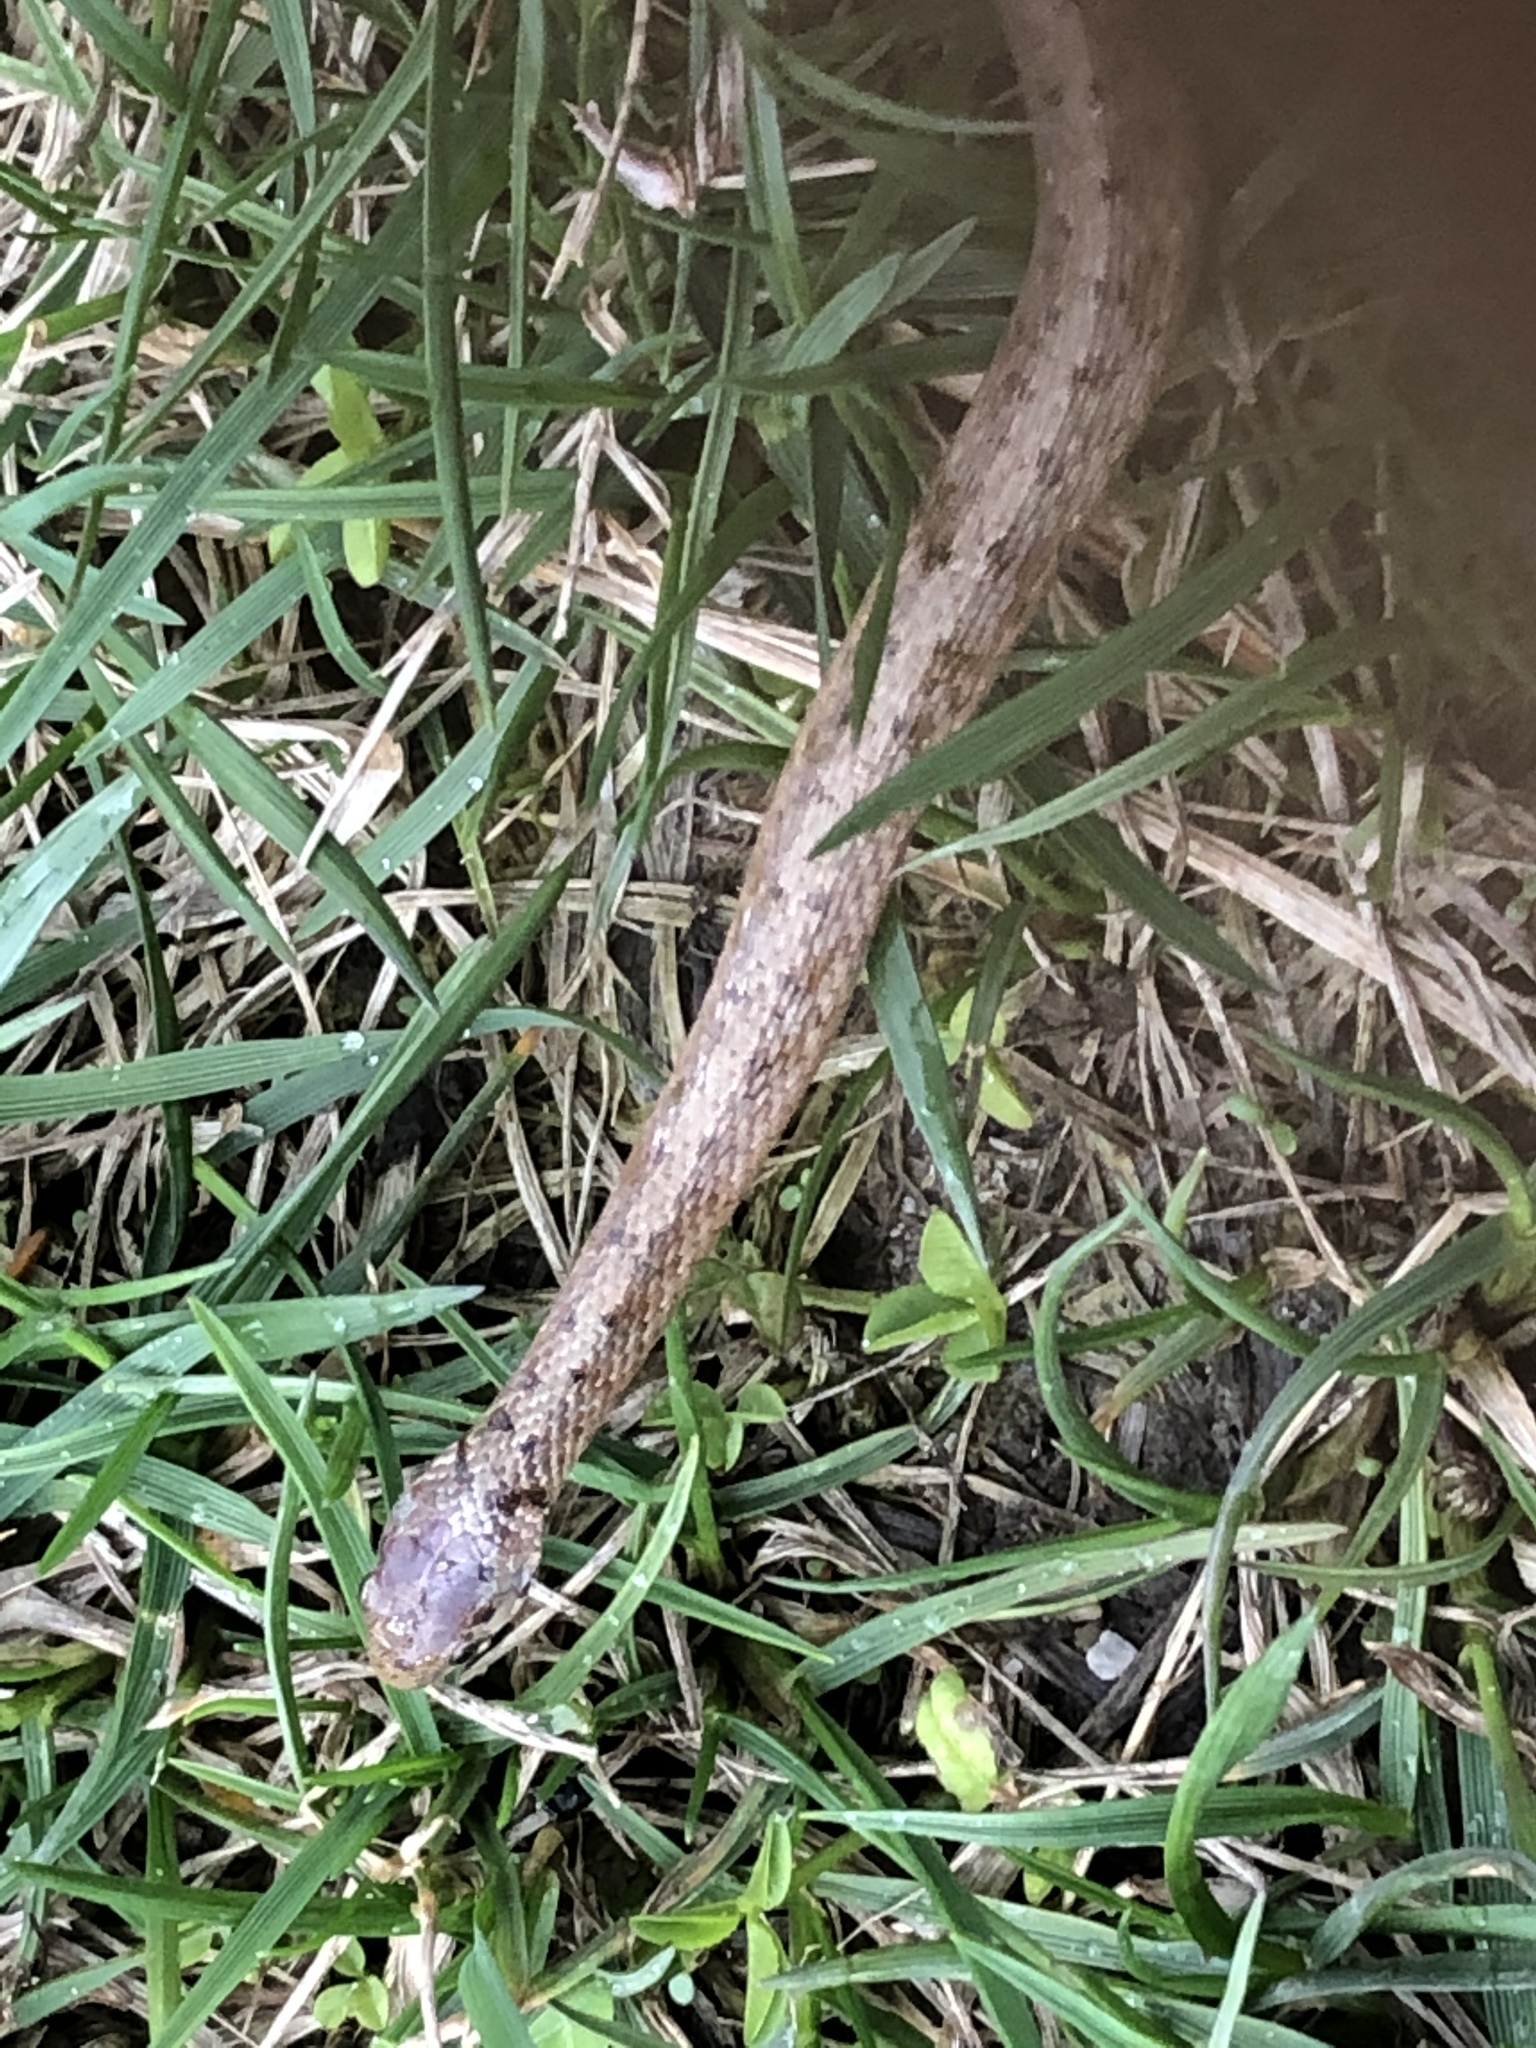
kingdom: Animalia
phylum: Chordata
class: Squamata
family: Colubridae
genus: Storeria
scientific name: Storeria dekayi
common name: (dekay’s) brown snake
